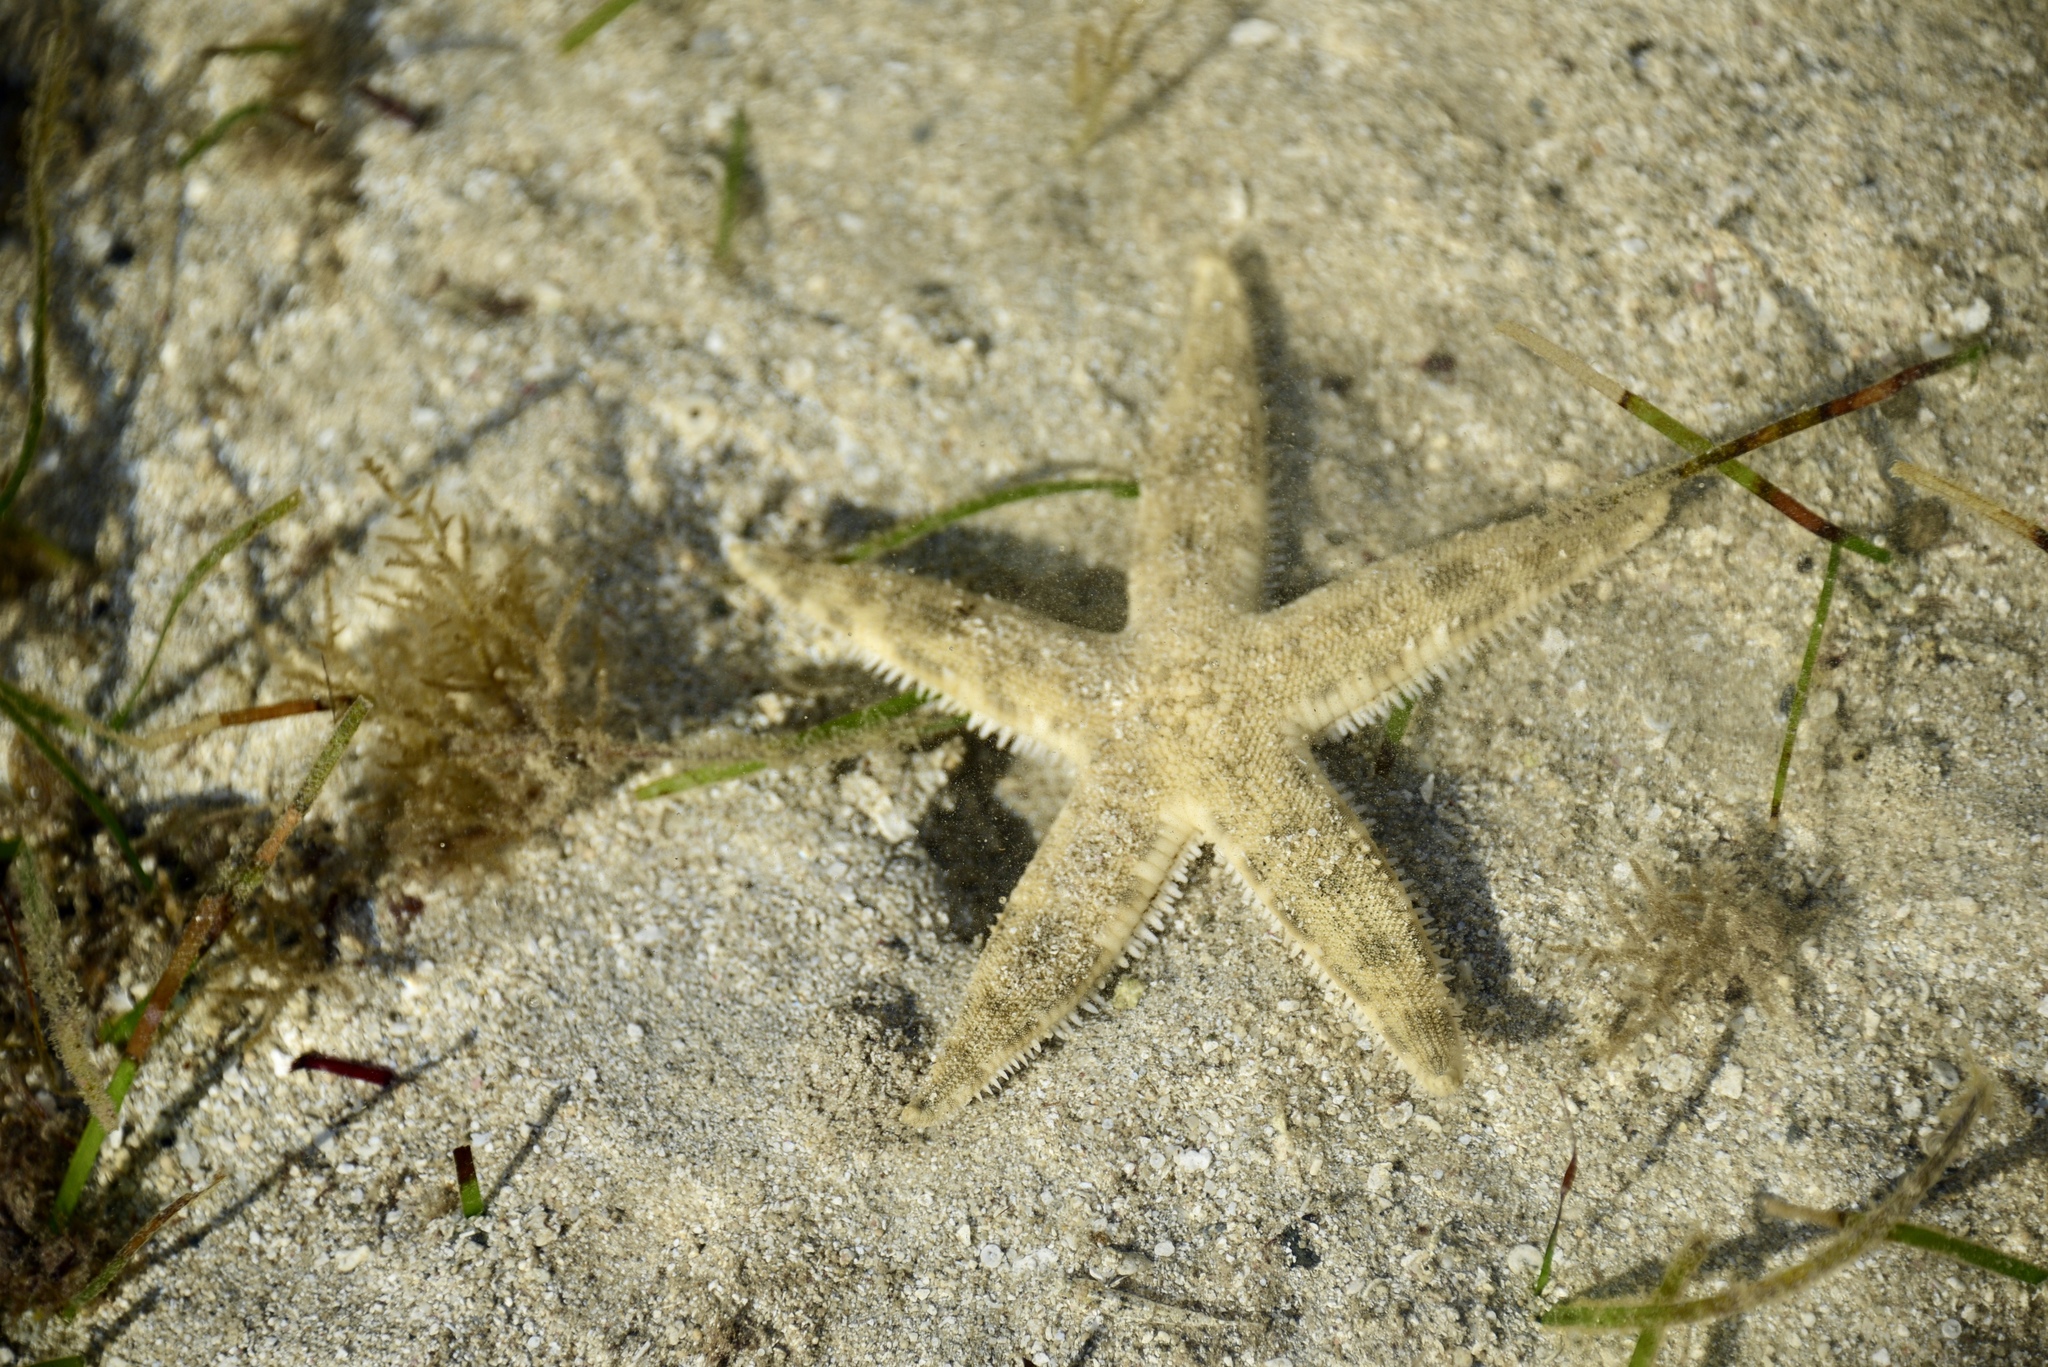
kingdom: Animalia
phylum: Echinodermata
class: Asteroidea
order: Valvatida
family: Archasteridae
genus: Archaster
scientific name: Archaster typicus
